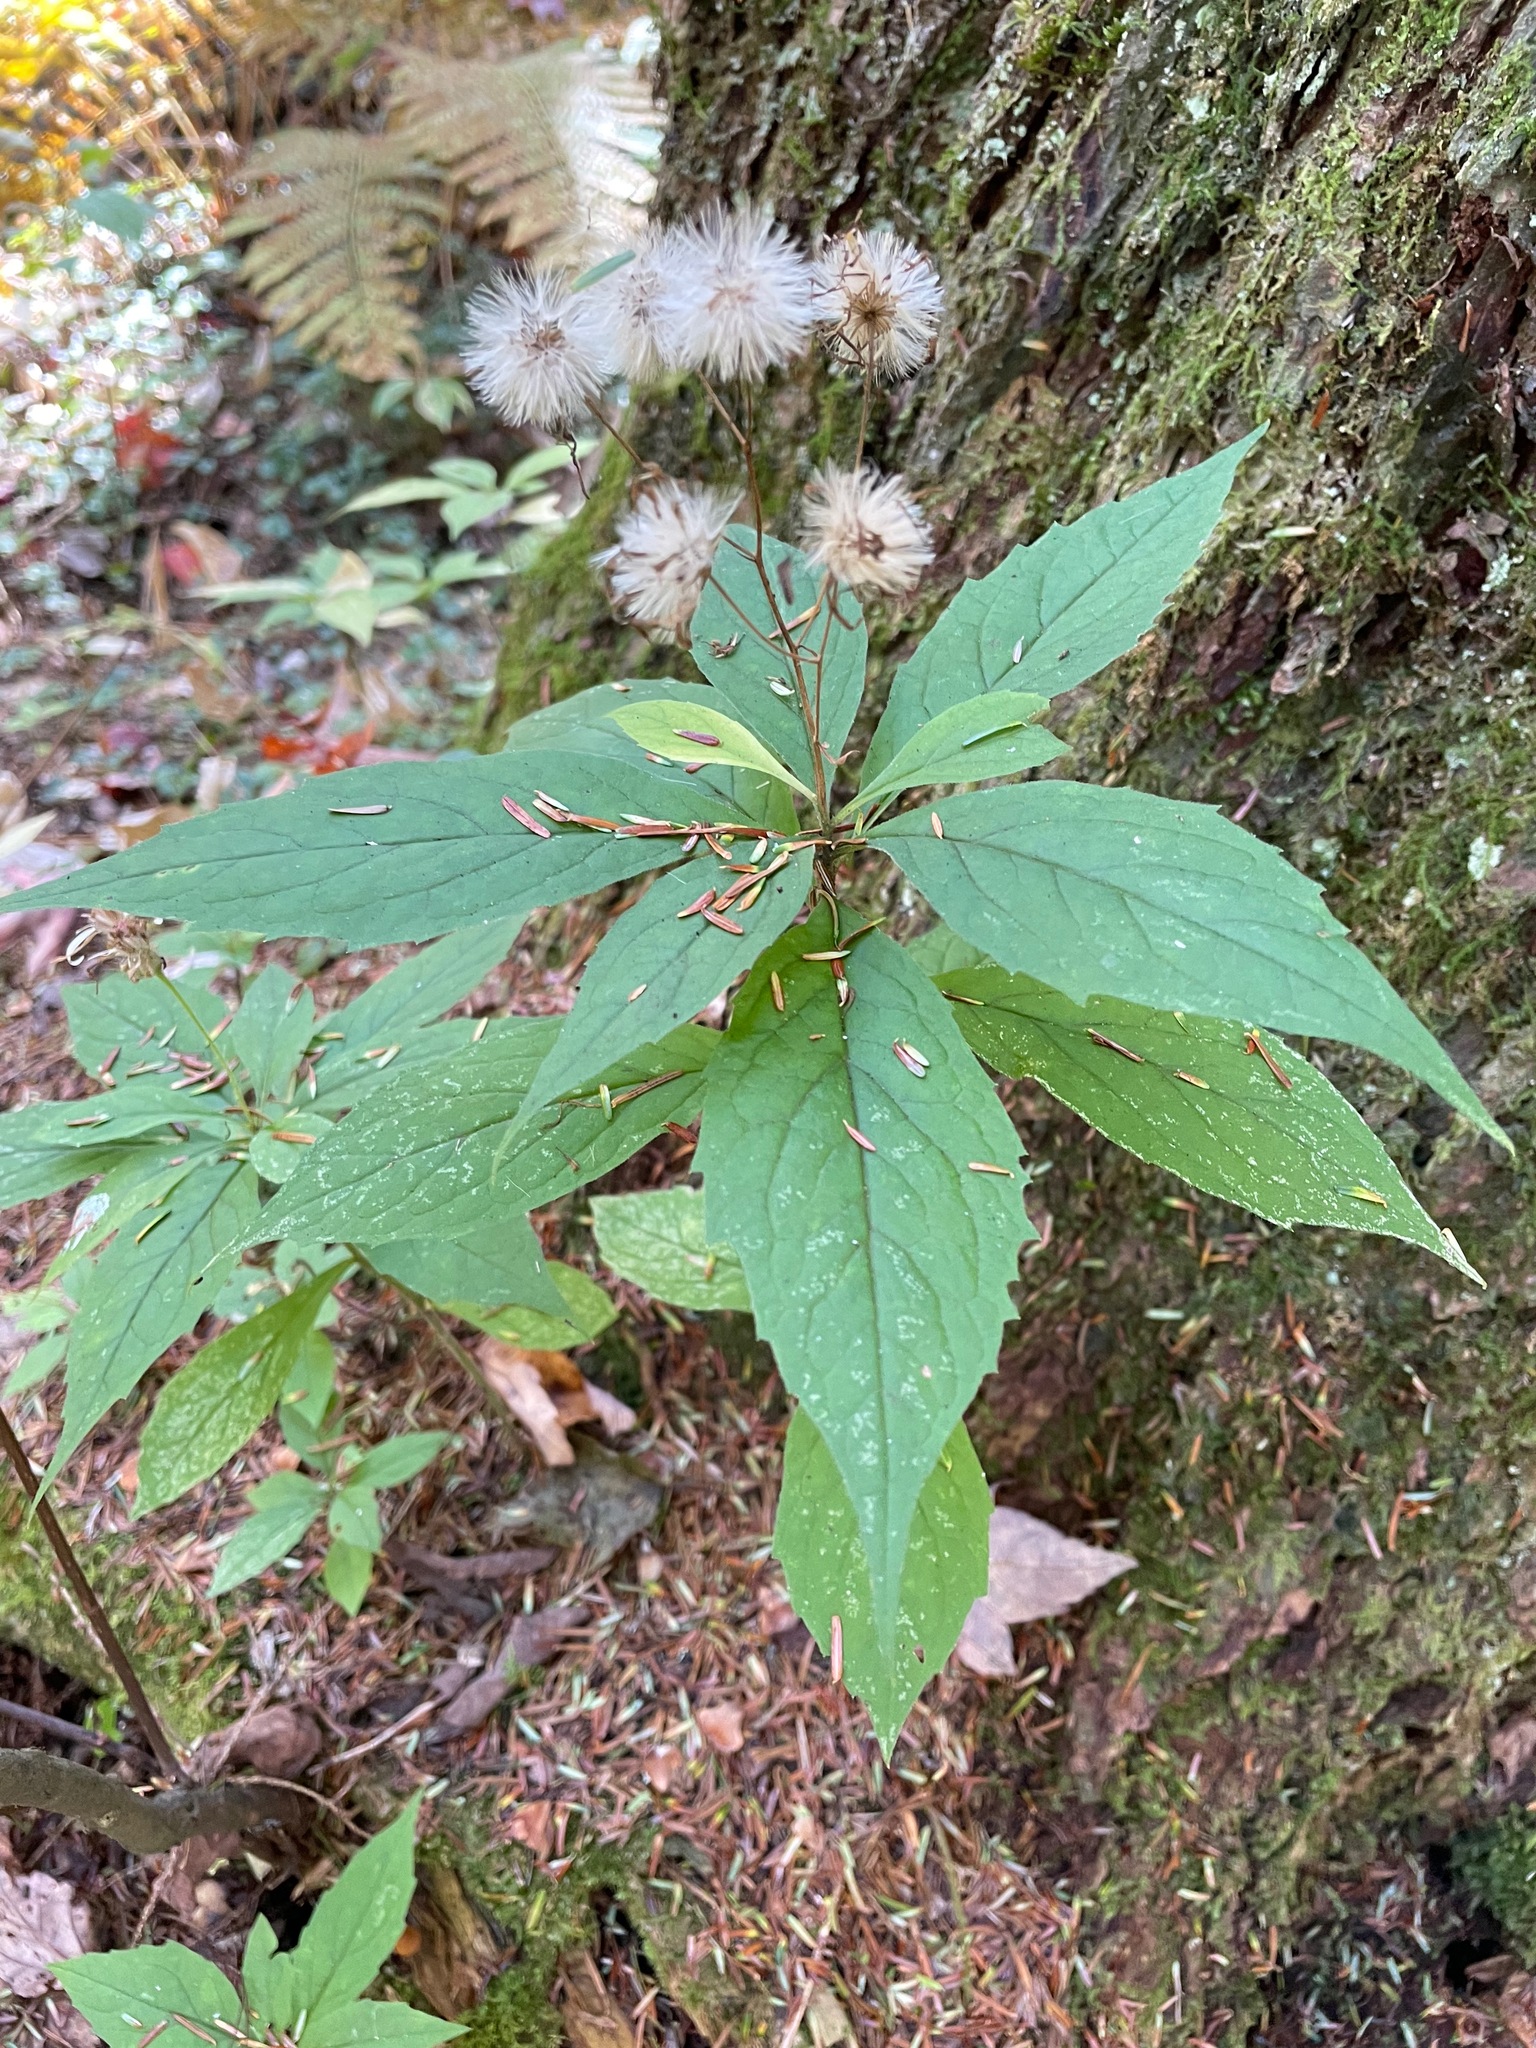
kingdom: Plantae
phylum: Tracheophyta
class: Magnoliopsida
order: Asterales
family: Asteraceae
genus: Oclemena
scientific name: Oclemena acuminata
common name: Mountain aster
